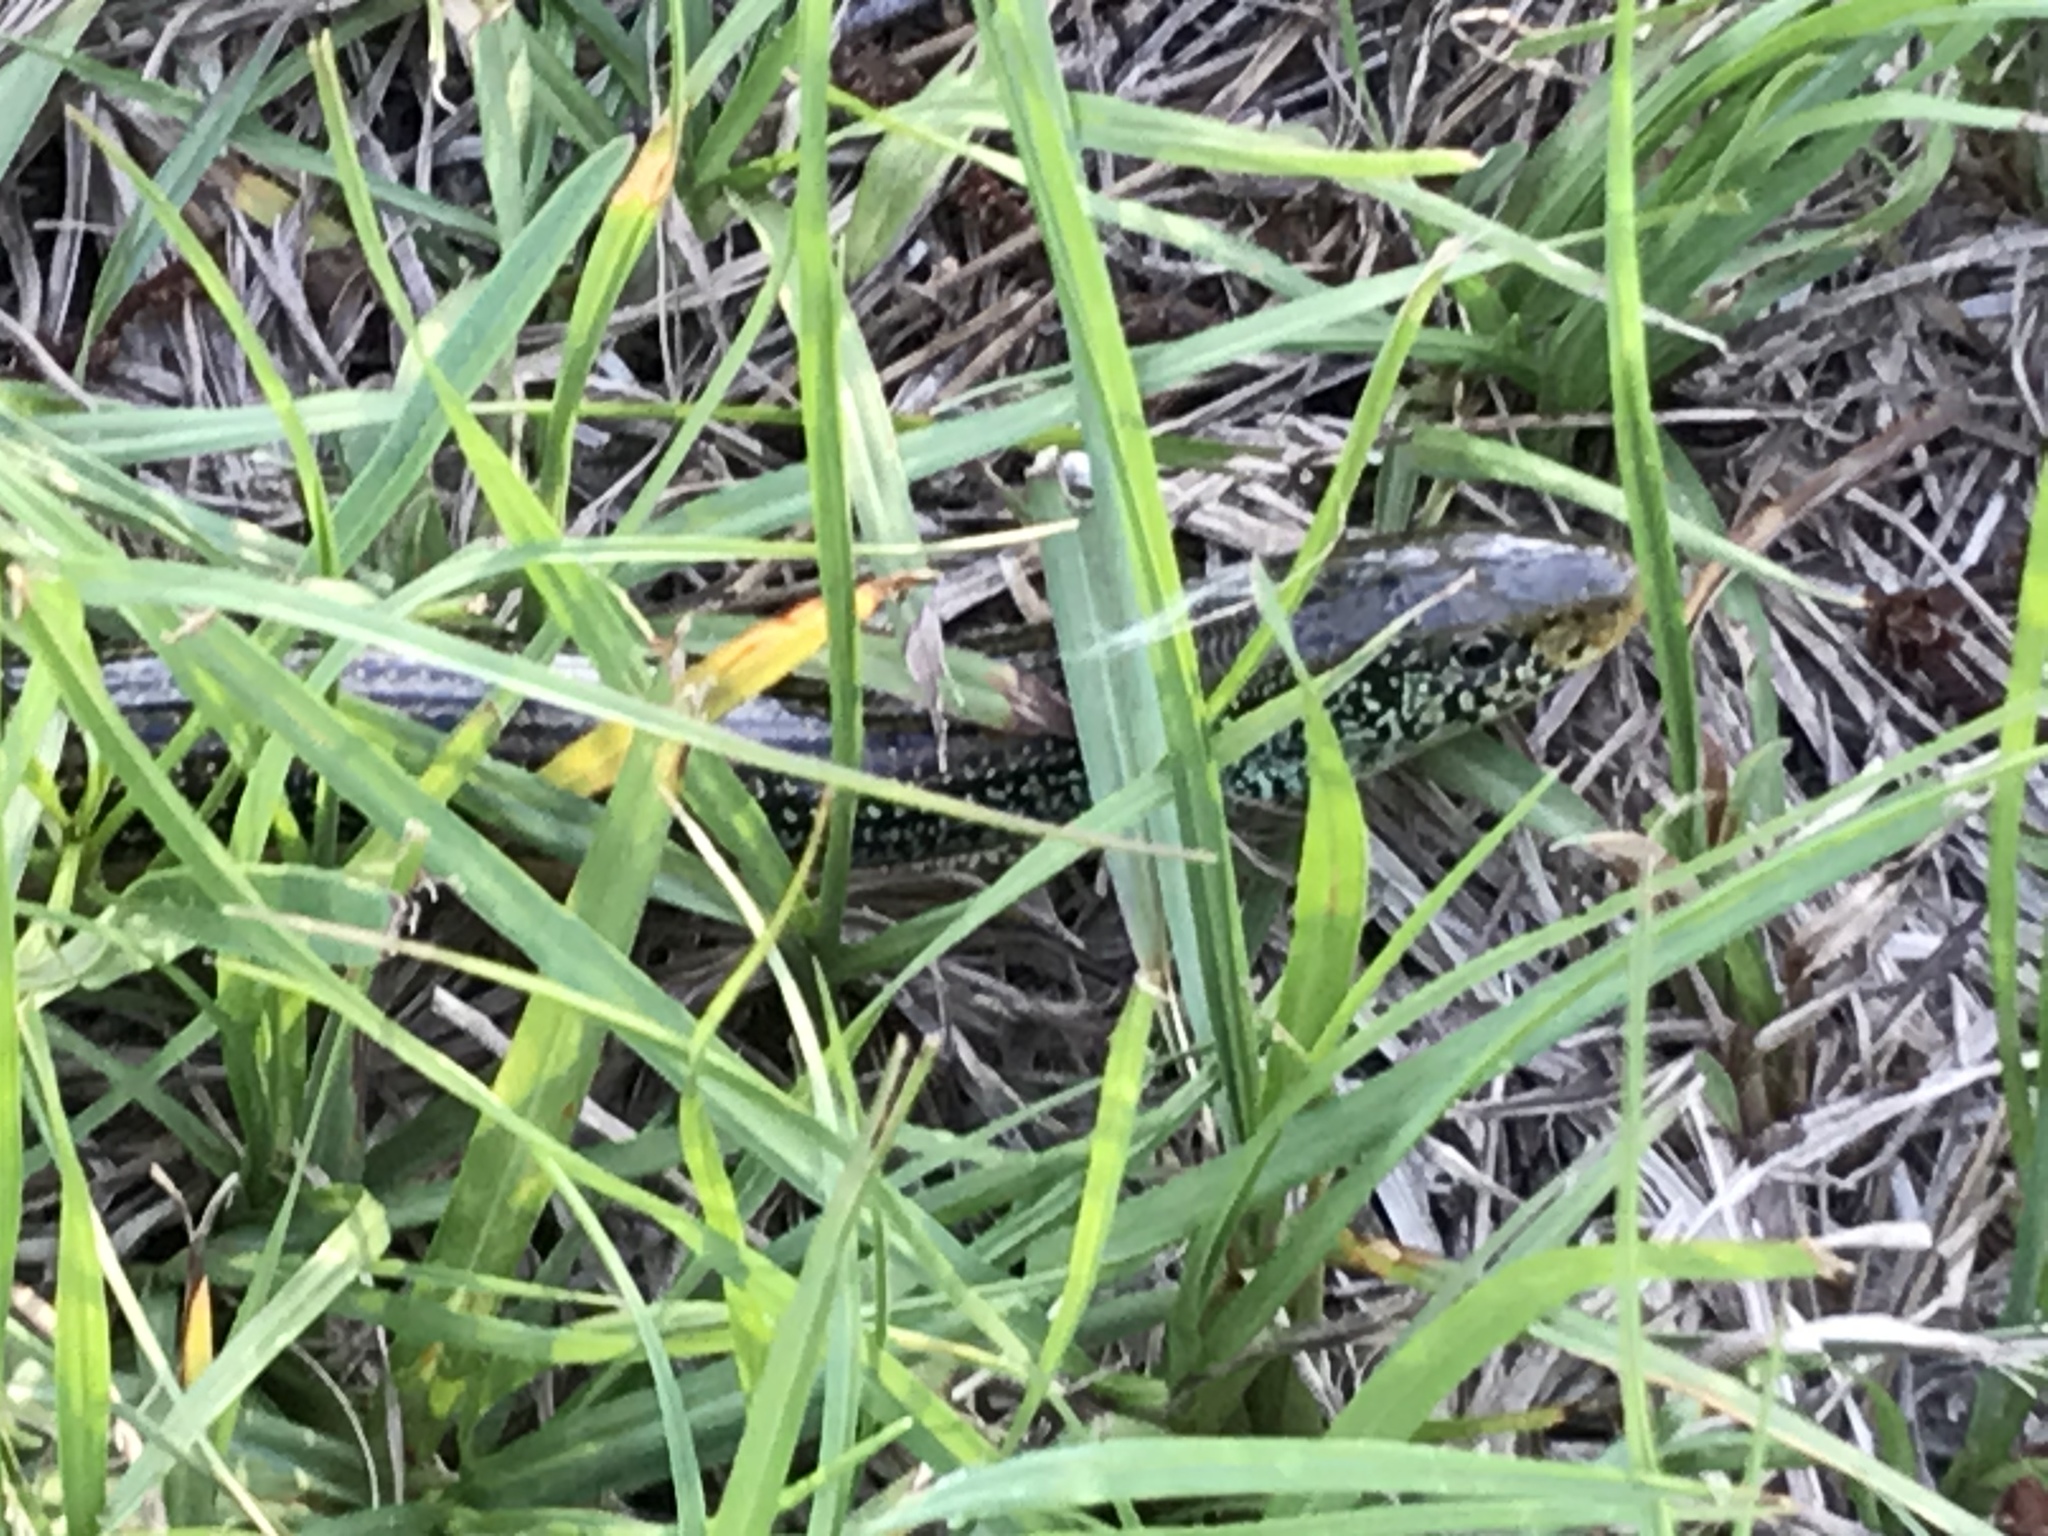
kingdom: Animalia
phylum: Chordata
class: Squamata
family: Anguidae
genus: Ophisaurus
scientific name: Ophisaurus ventralis
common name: Eastern glass lizard
